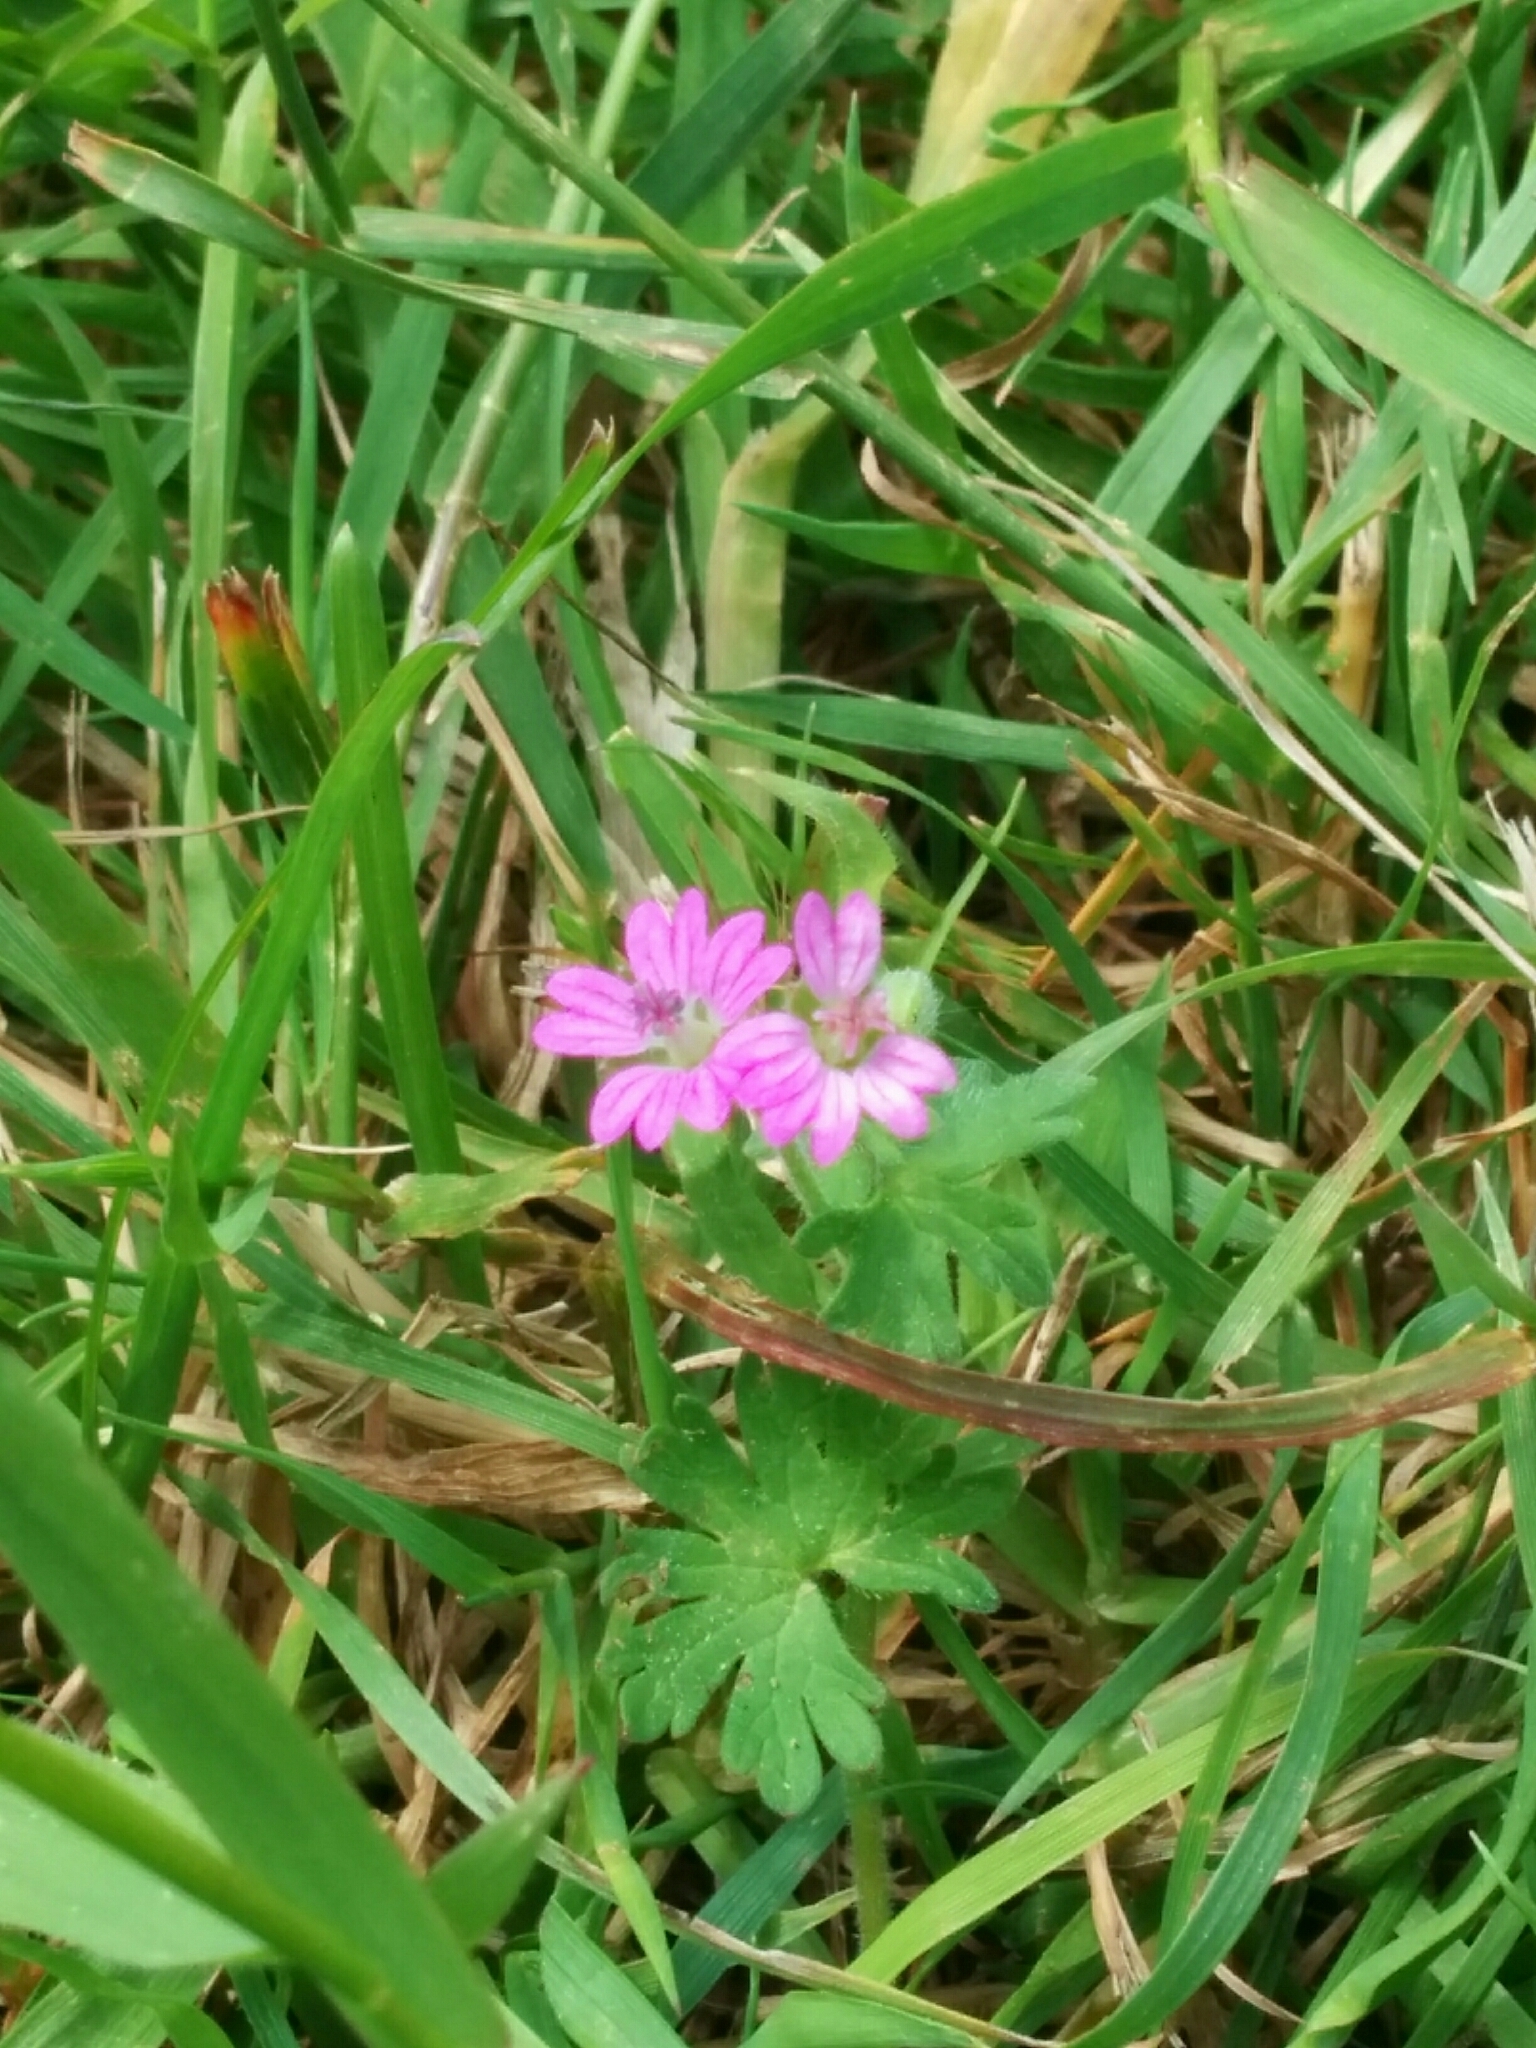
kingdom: Plantae
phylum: Tracheophyta
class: Magnoliopsida
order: Geraniales
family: Geraniaceae
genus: Geranium
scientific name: Geranium molle
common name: Dove's-foot crane's-bill
